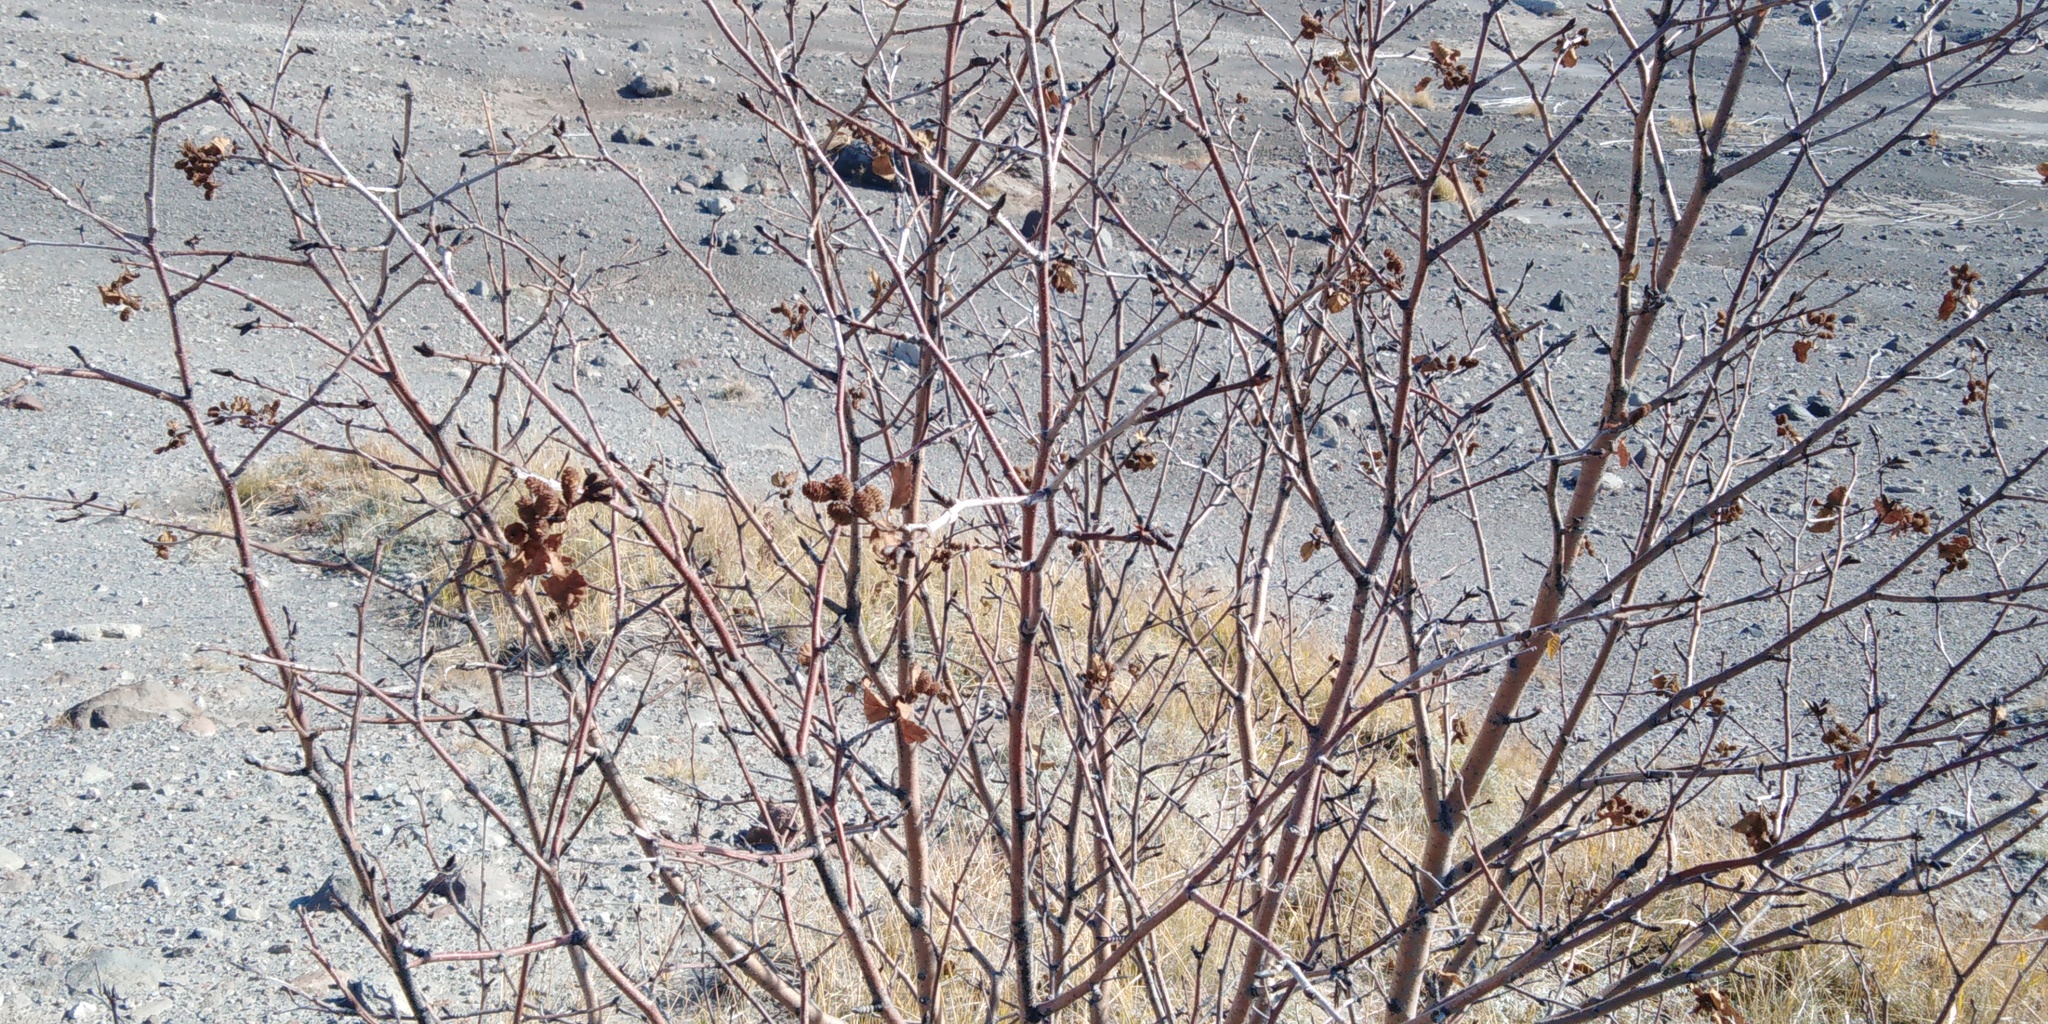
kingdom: Plantae
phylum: Tracheophyta
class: Magnoliopsida
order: Fagales
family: Betulaceae
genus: Alnus
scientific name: Alnus alnobetula
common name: Green alder
